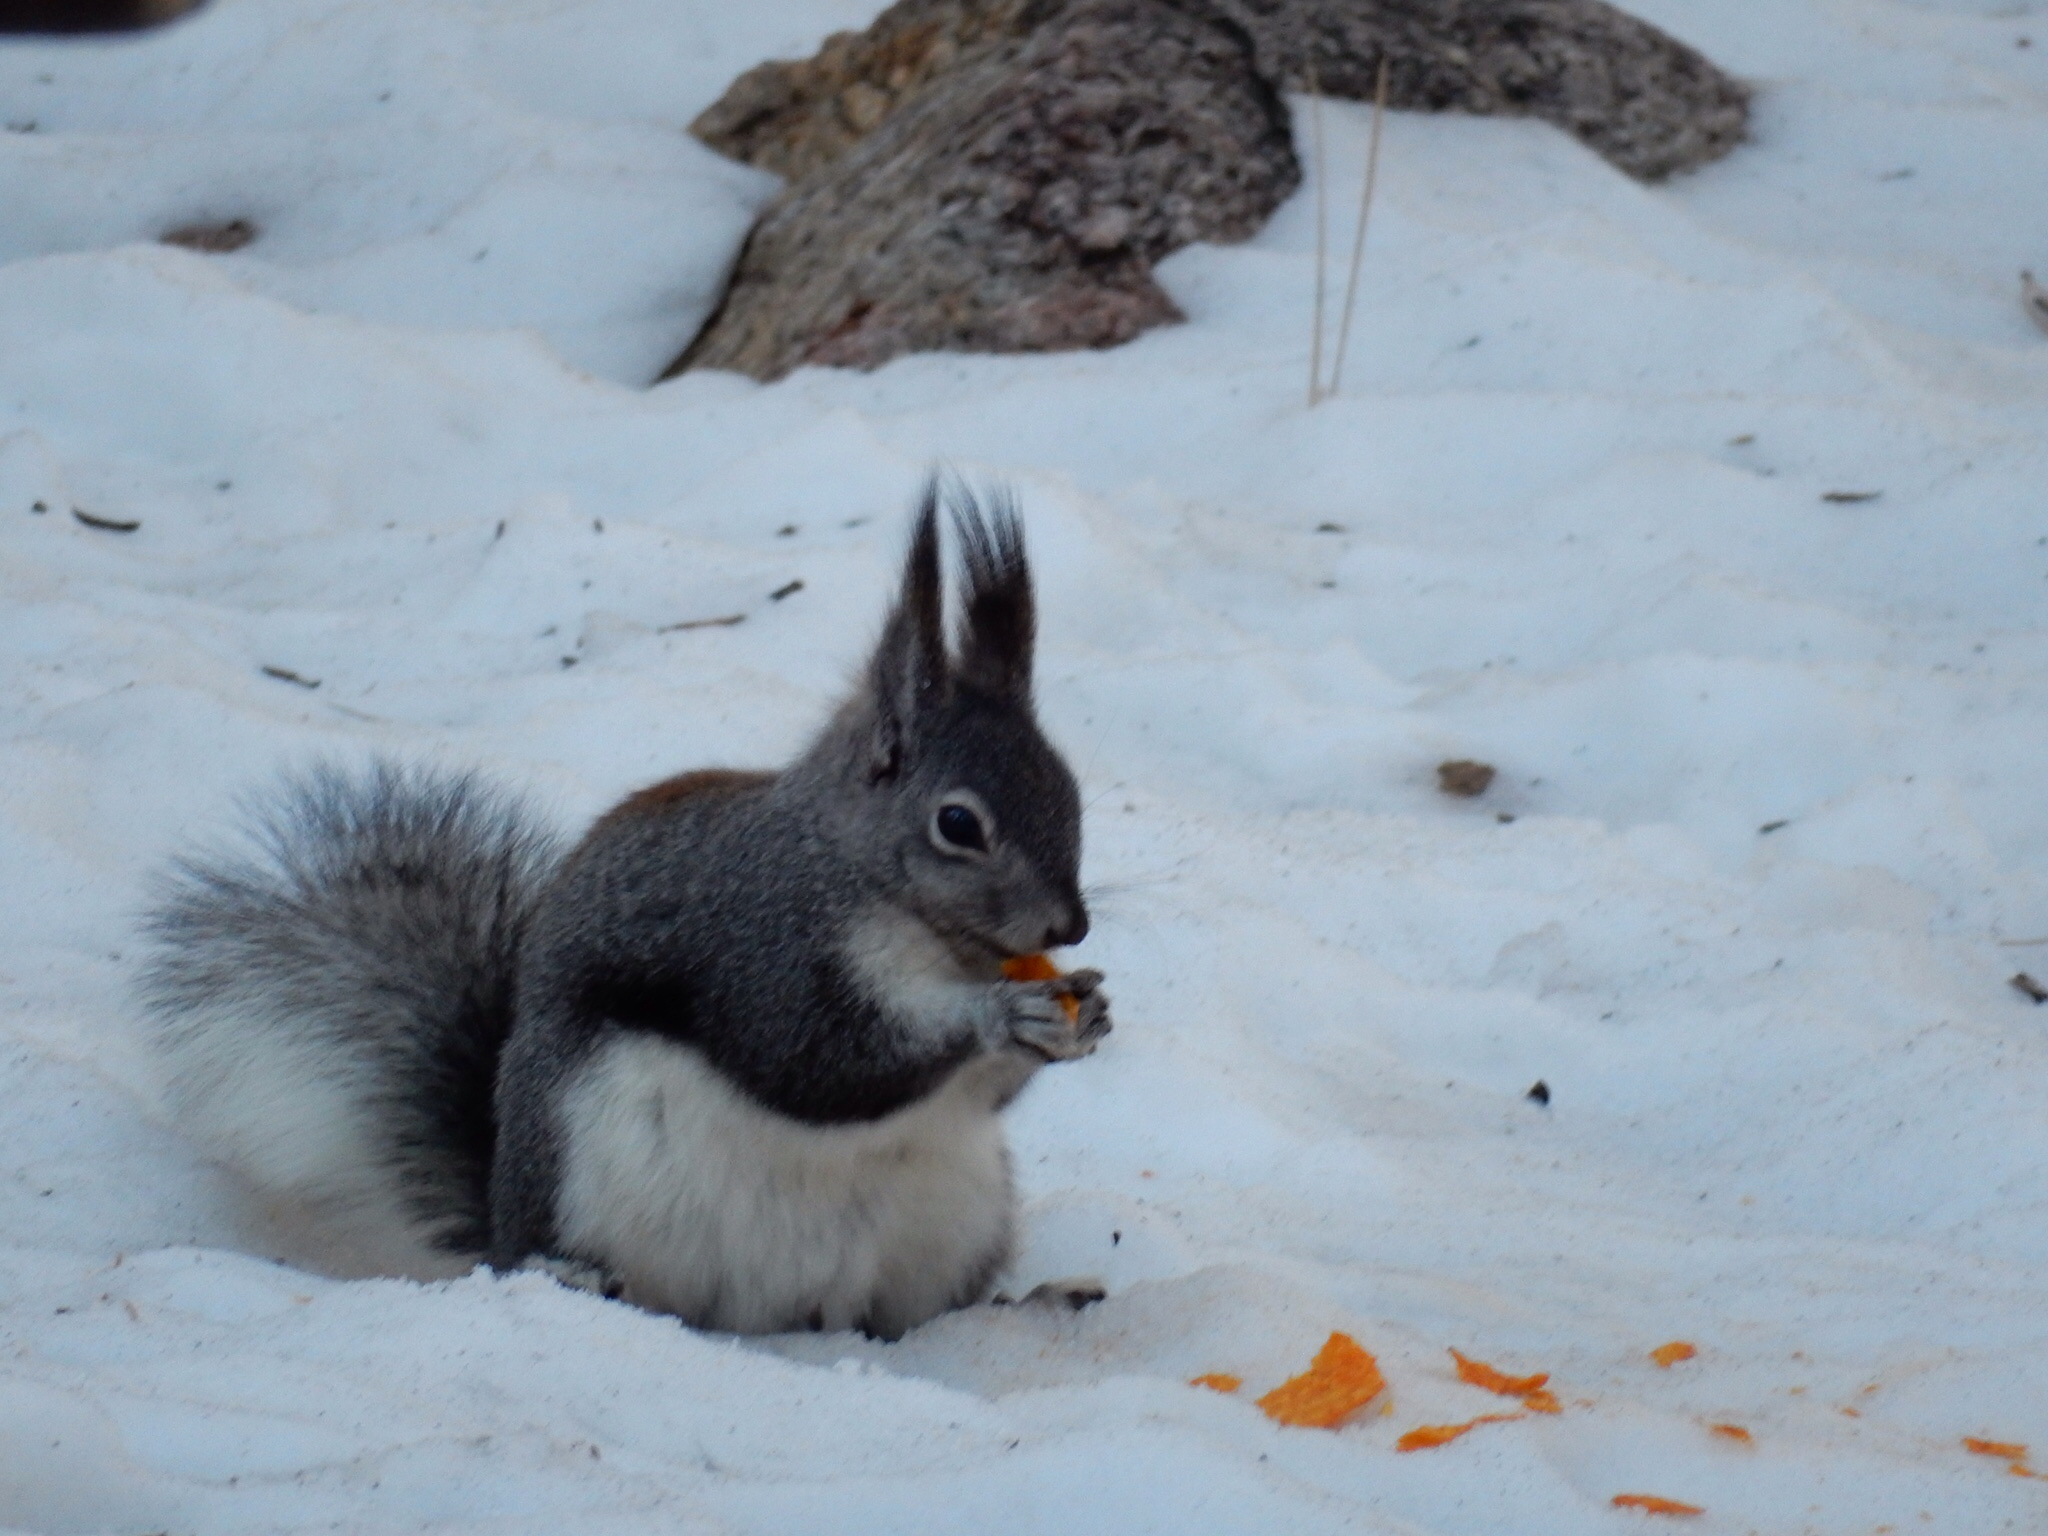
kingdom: Animalia
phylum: Chordata
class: Mammalia
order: Rodentia
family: Sciuridae
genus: Sciurus
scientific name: Sciurus aberti
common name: Abert's squirrel
